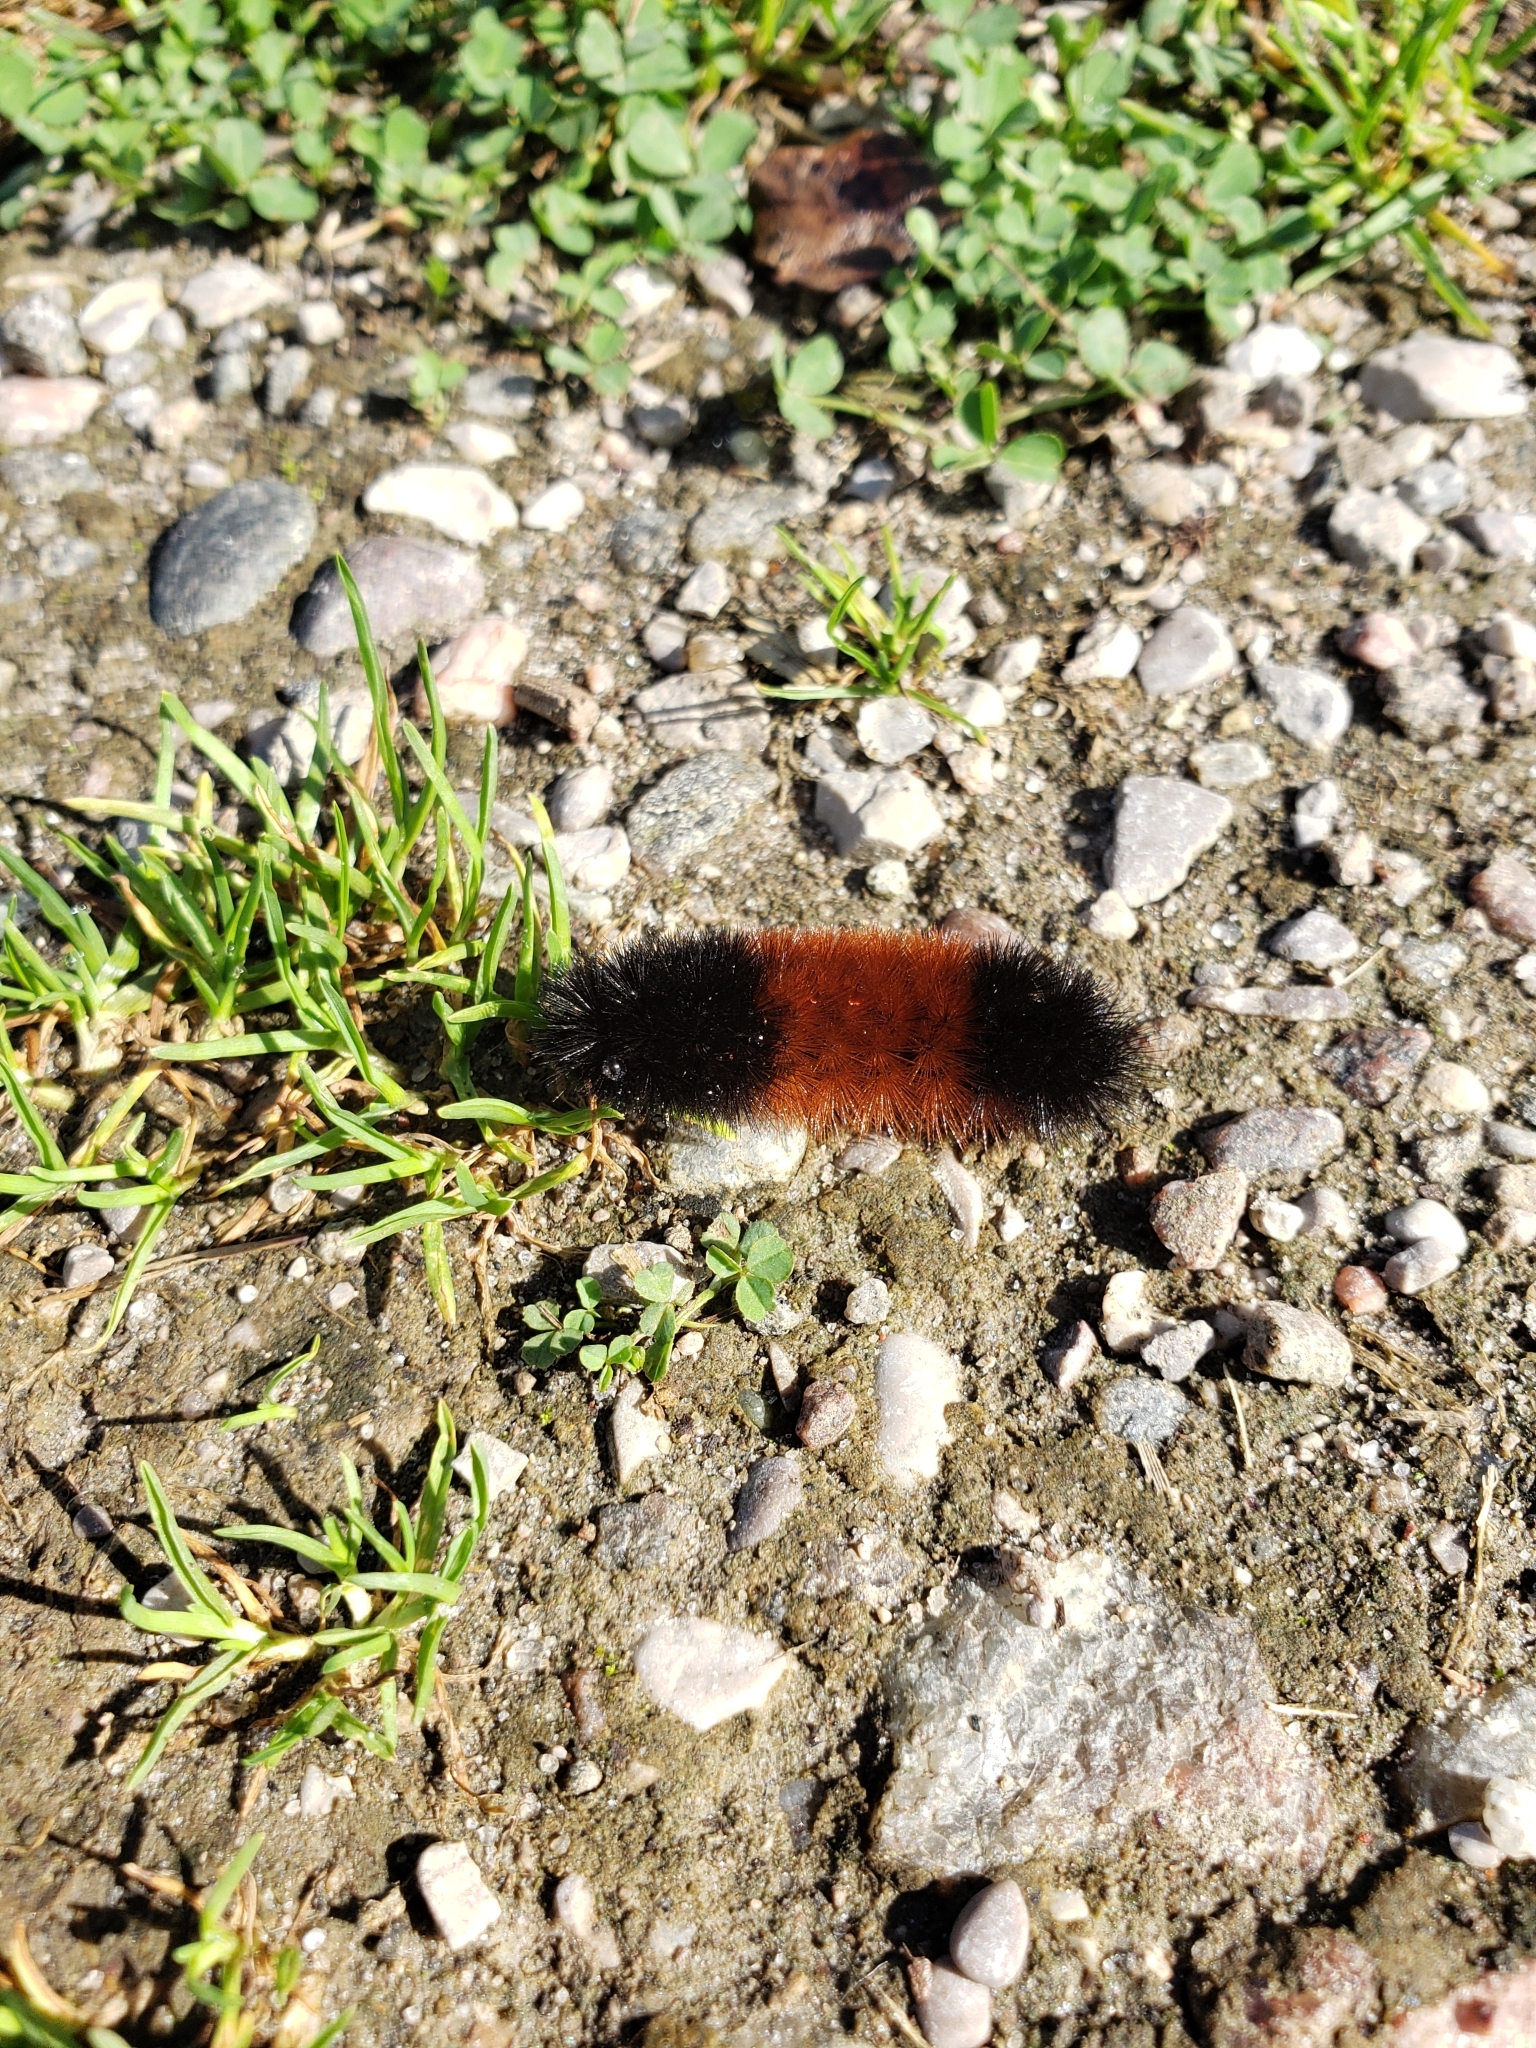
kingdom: Animalia
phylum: Arthropoda
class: Insecta
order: Lepidoptera
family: Erebidae
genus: Pyrrharctia
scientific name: Pyrrharctia isabella
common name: Isabella tiger moth
